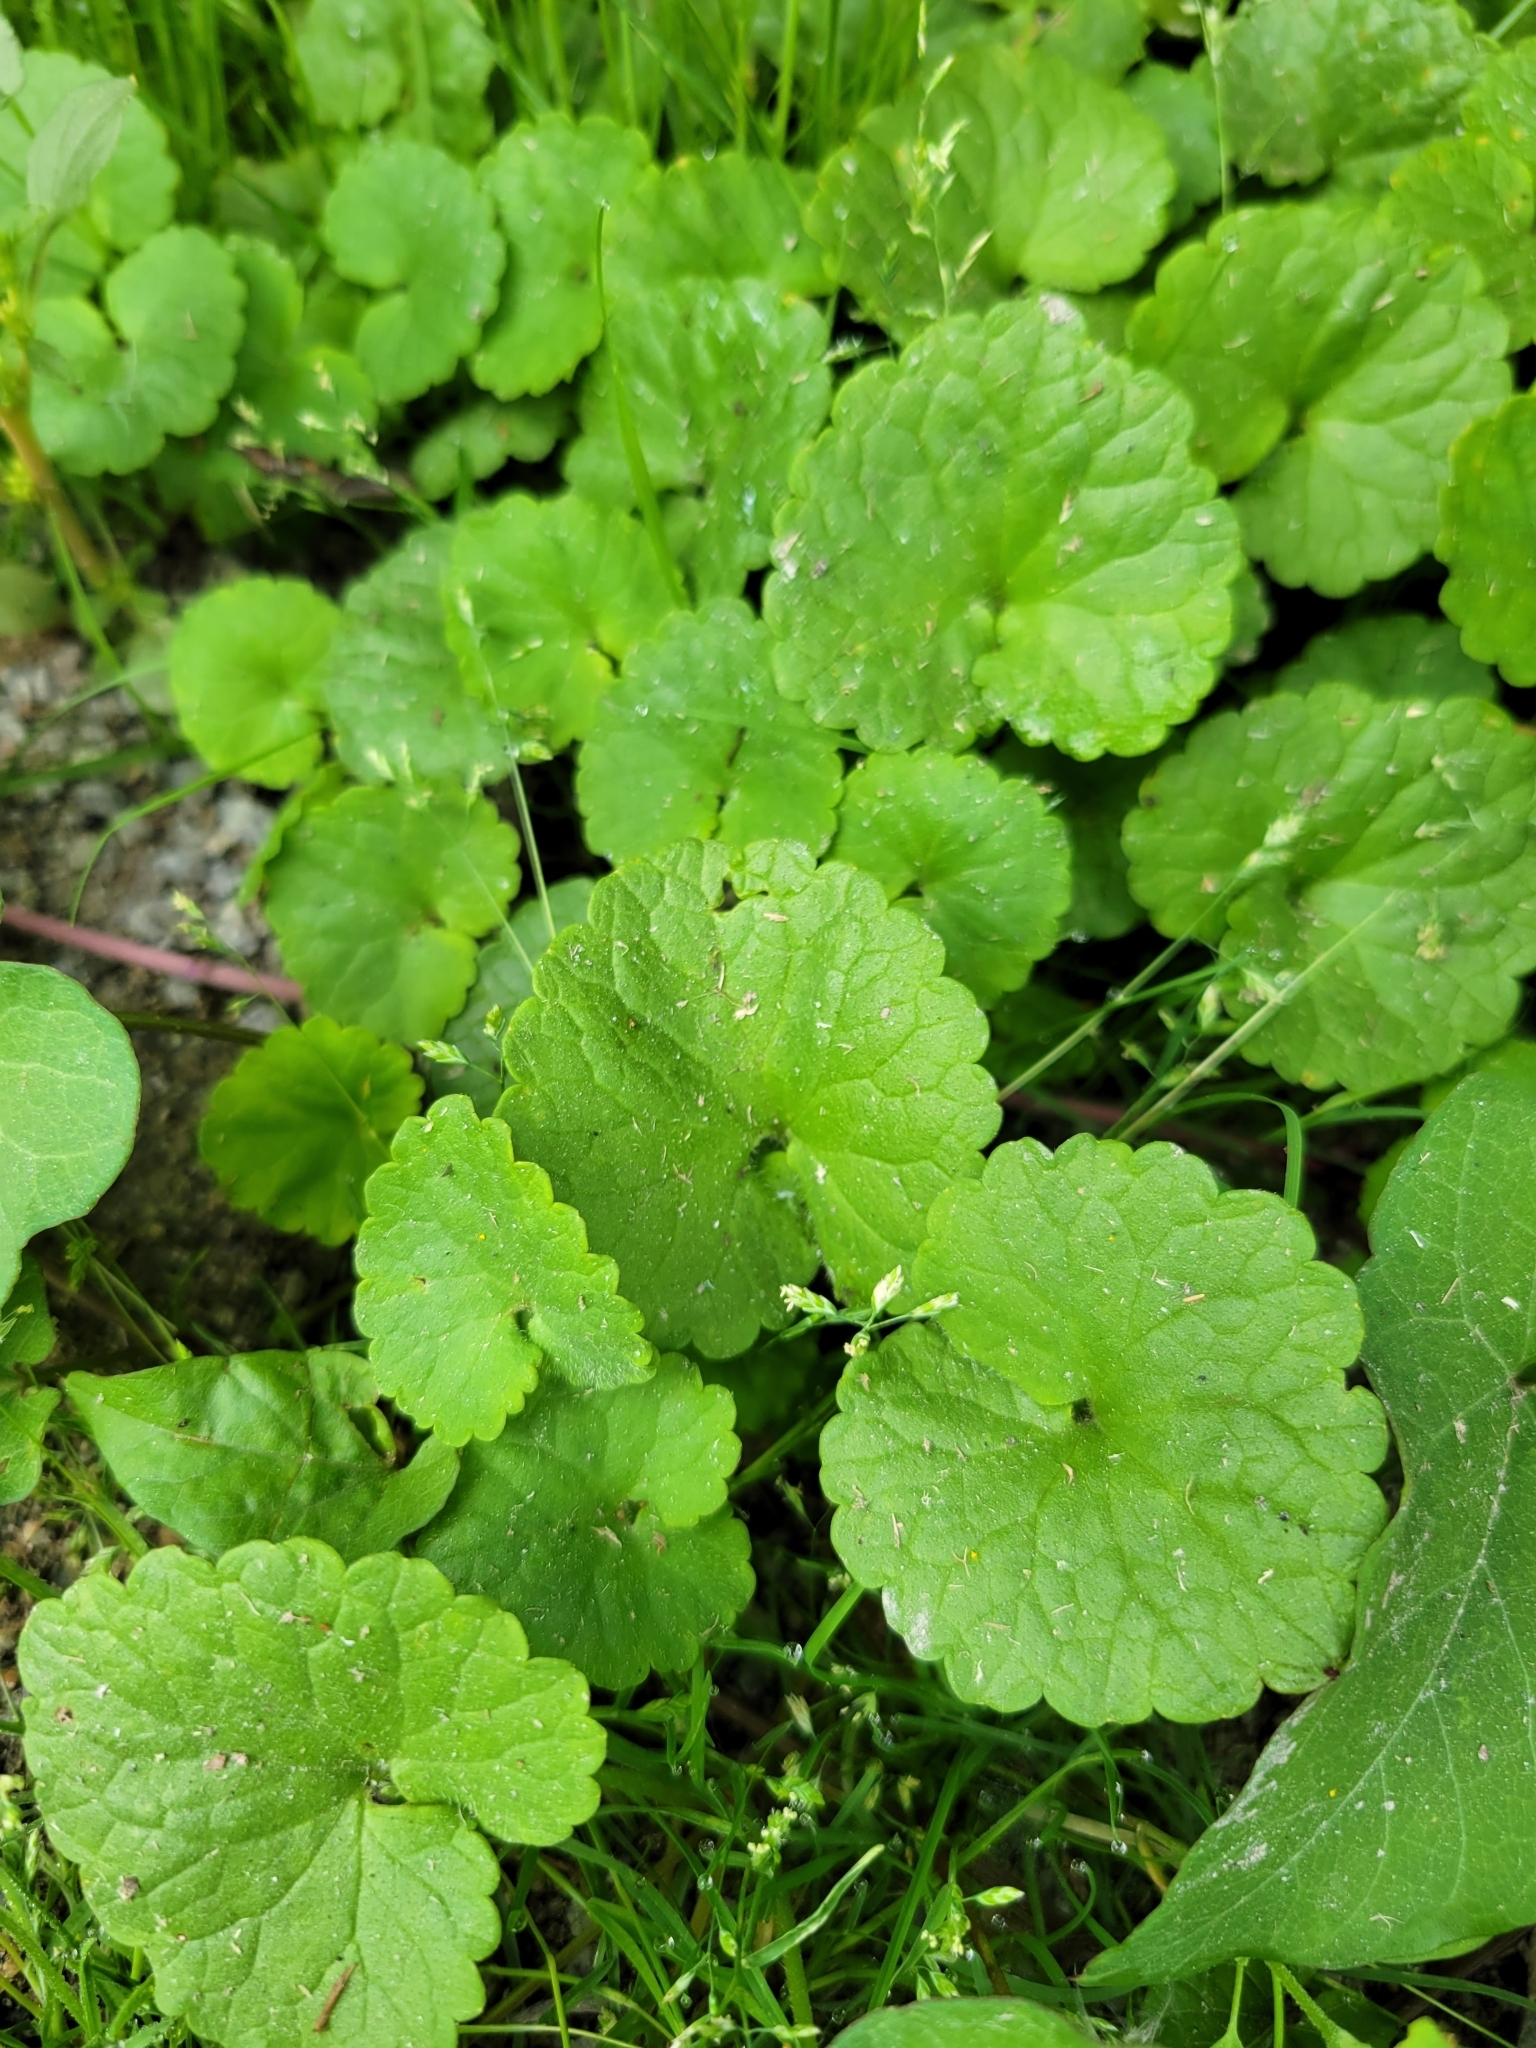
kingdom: Plantae
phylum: Tracheophyta
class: Magnoliopsida
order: Lamiales
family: Lamiaceae
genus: Glechoma
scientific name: Glechoma hederacea
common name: Ground ivy
